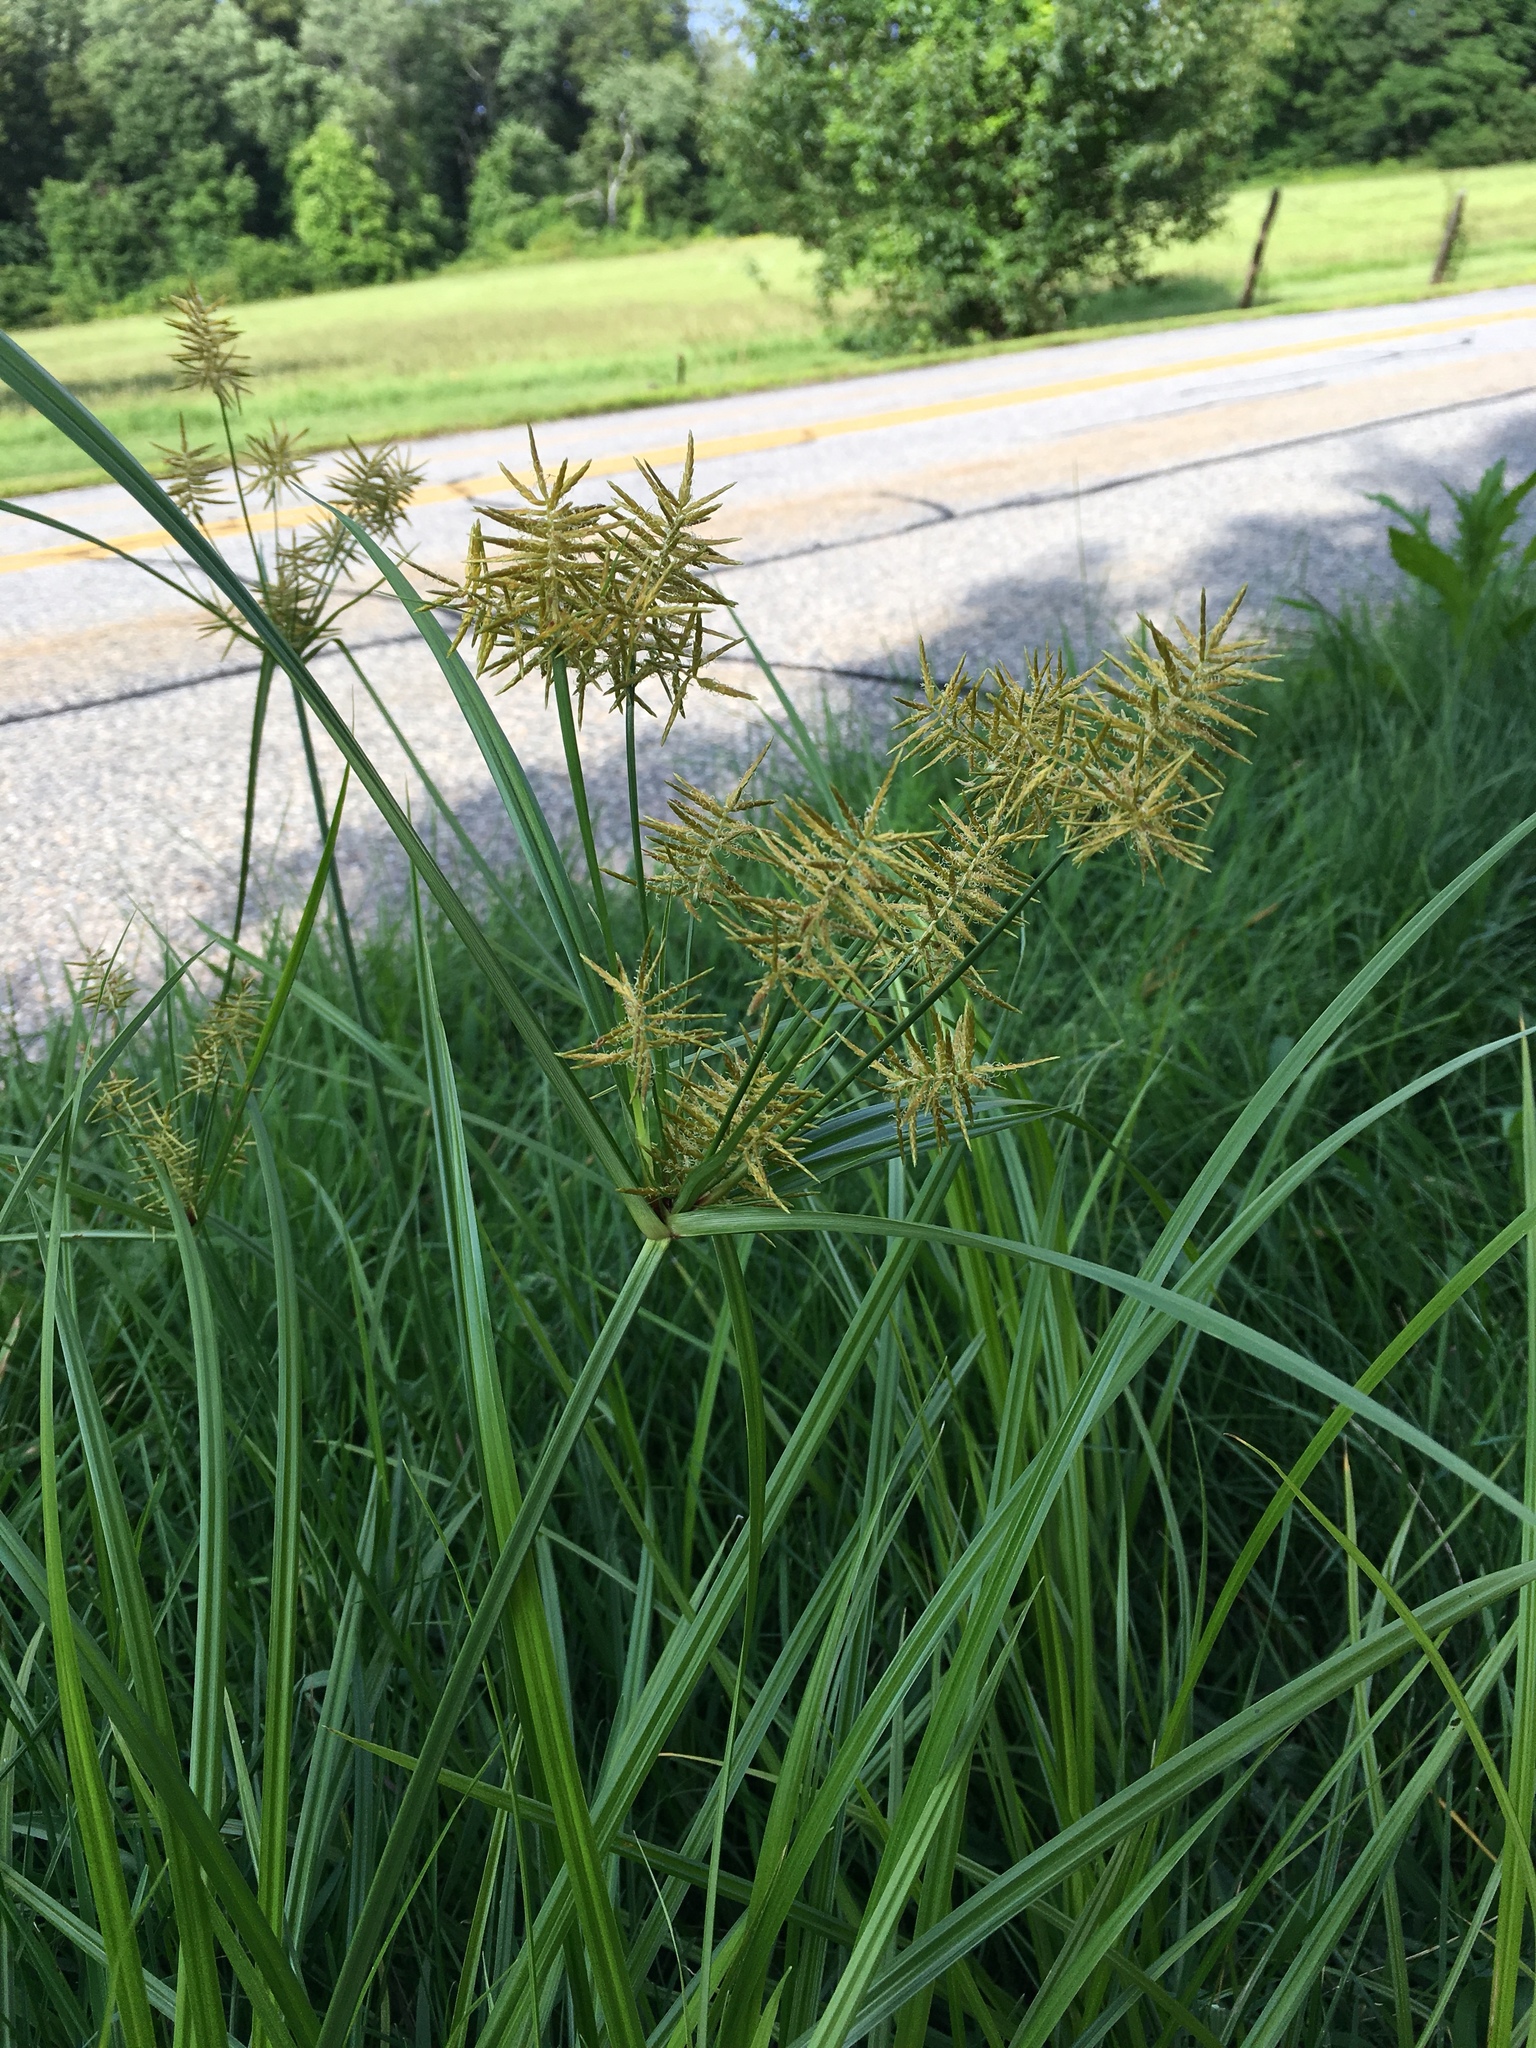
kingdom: Plantae
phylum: Tracheophyta
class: Liliopsida
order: Poales
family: Cyperaceae
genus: Cyperus
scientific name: Cyperus esculentus
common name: Yellow nutsedge
